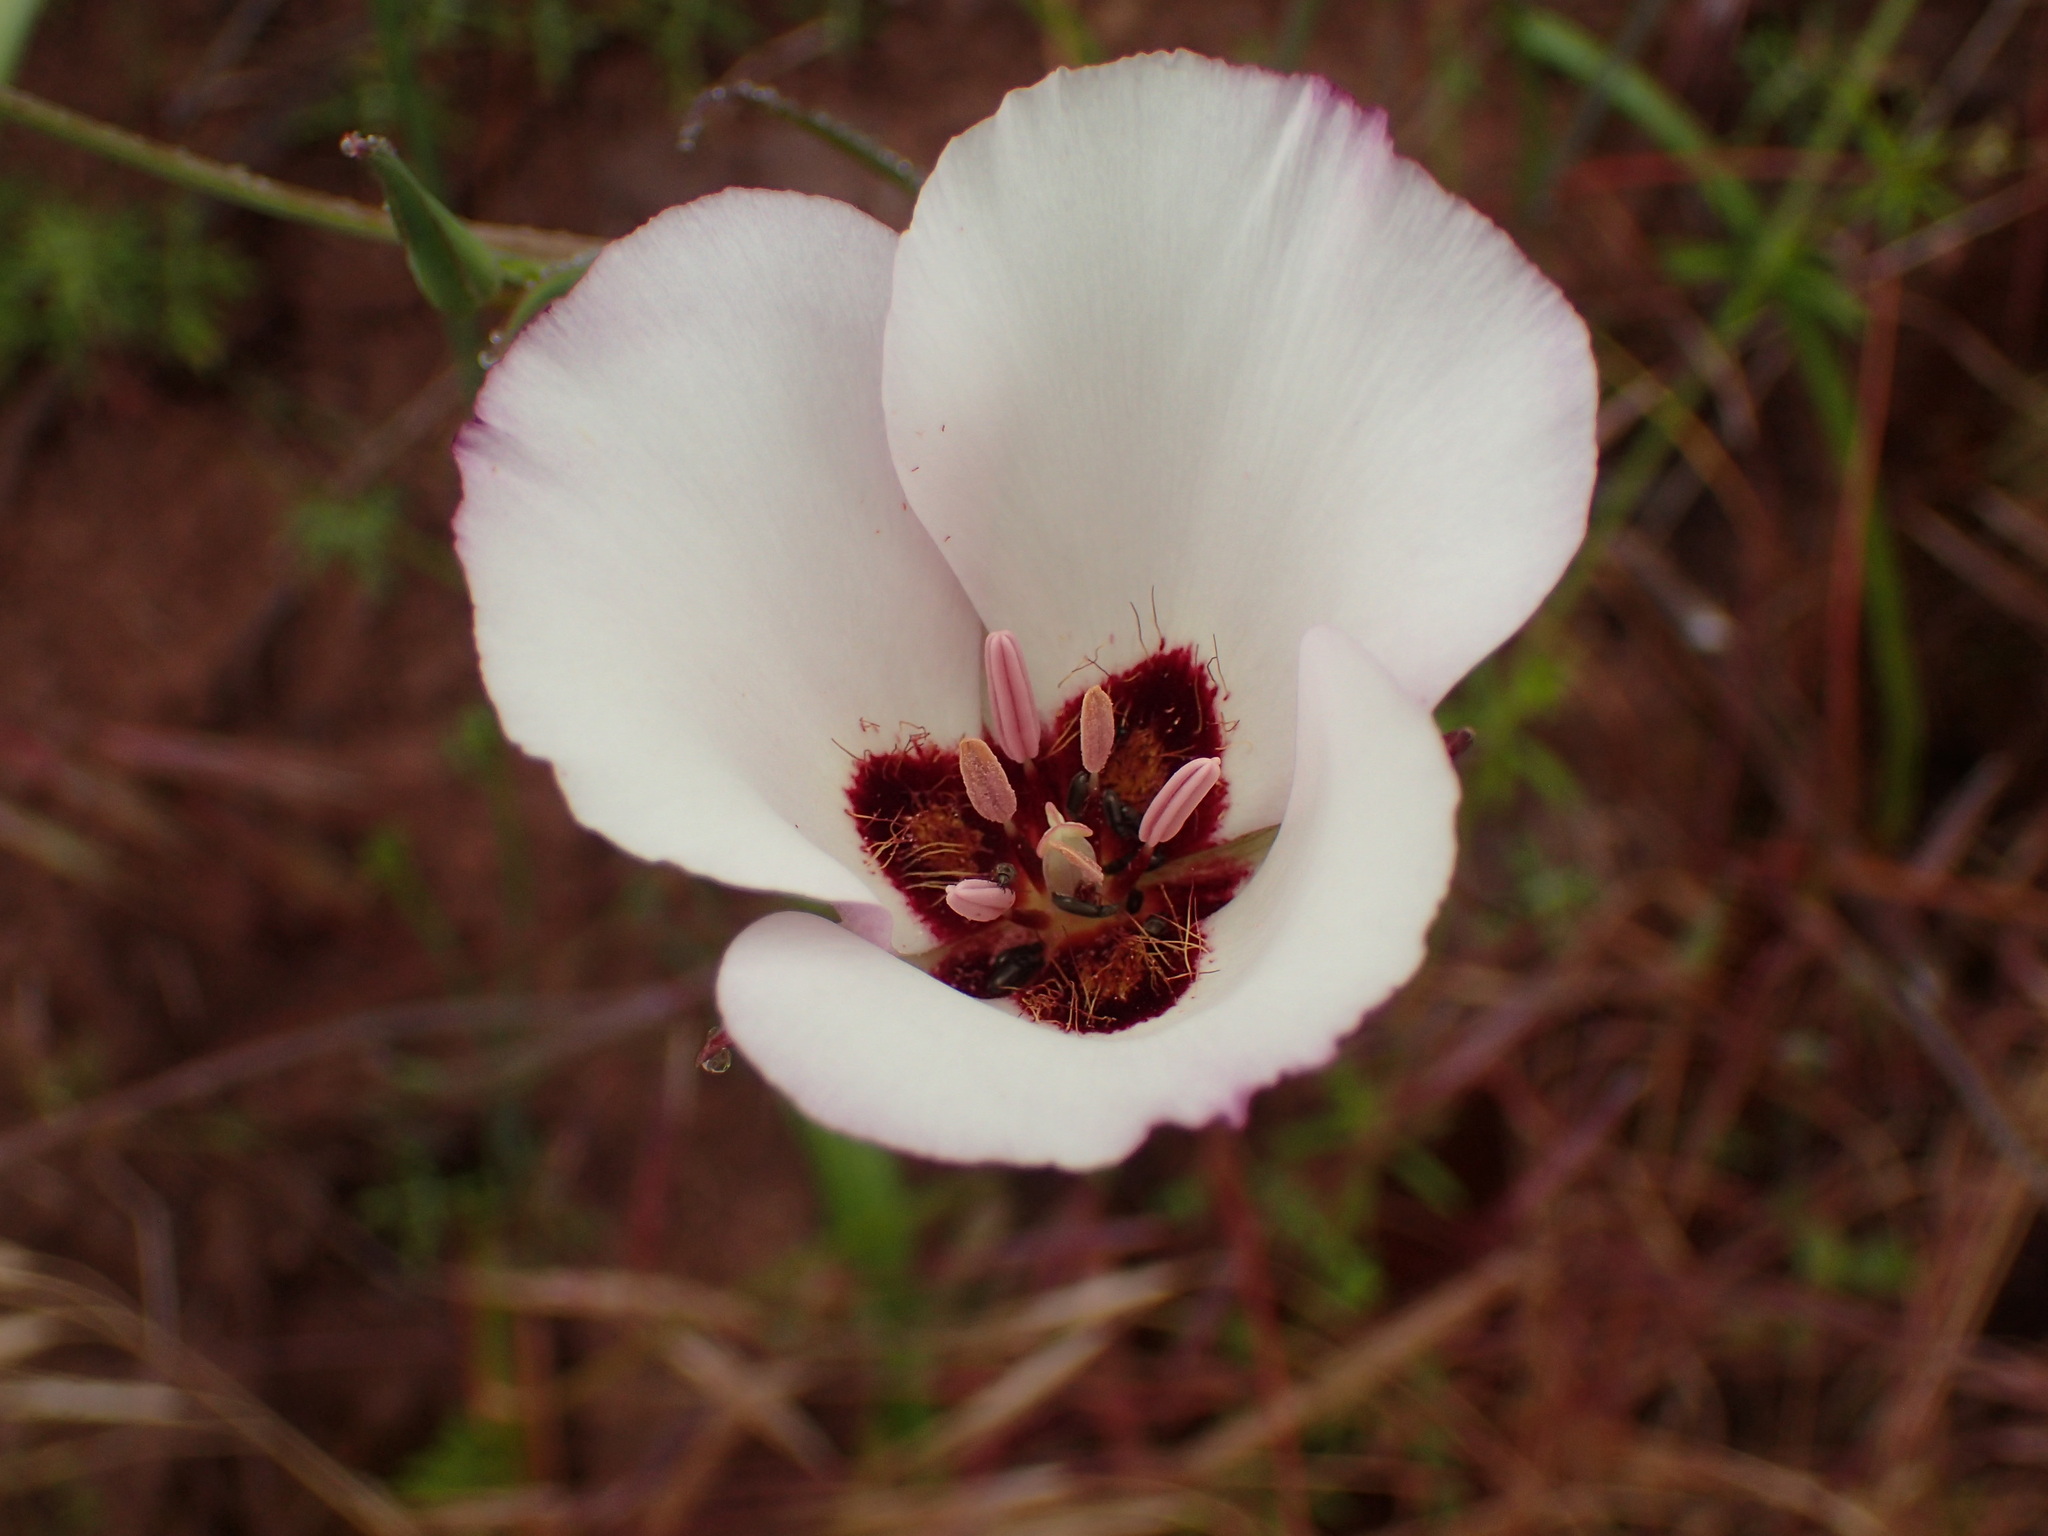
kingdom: Plantae
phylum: Tracheophyta
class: Liliopsida
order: Liliales
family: Liliaceae
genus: Calochortus
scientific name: Calochortus catalinae
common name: Catalina mariposa-lily
